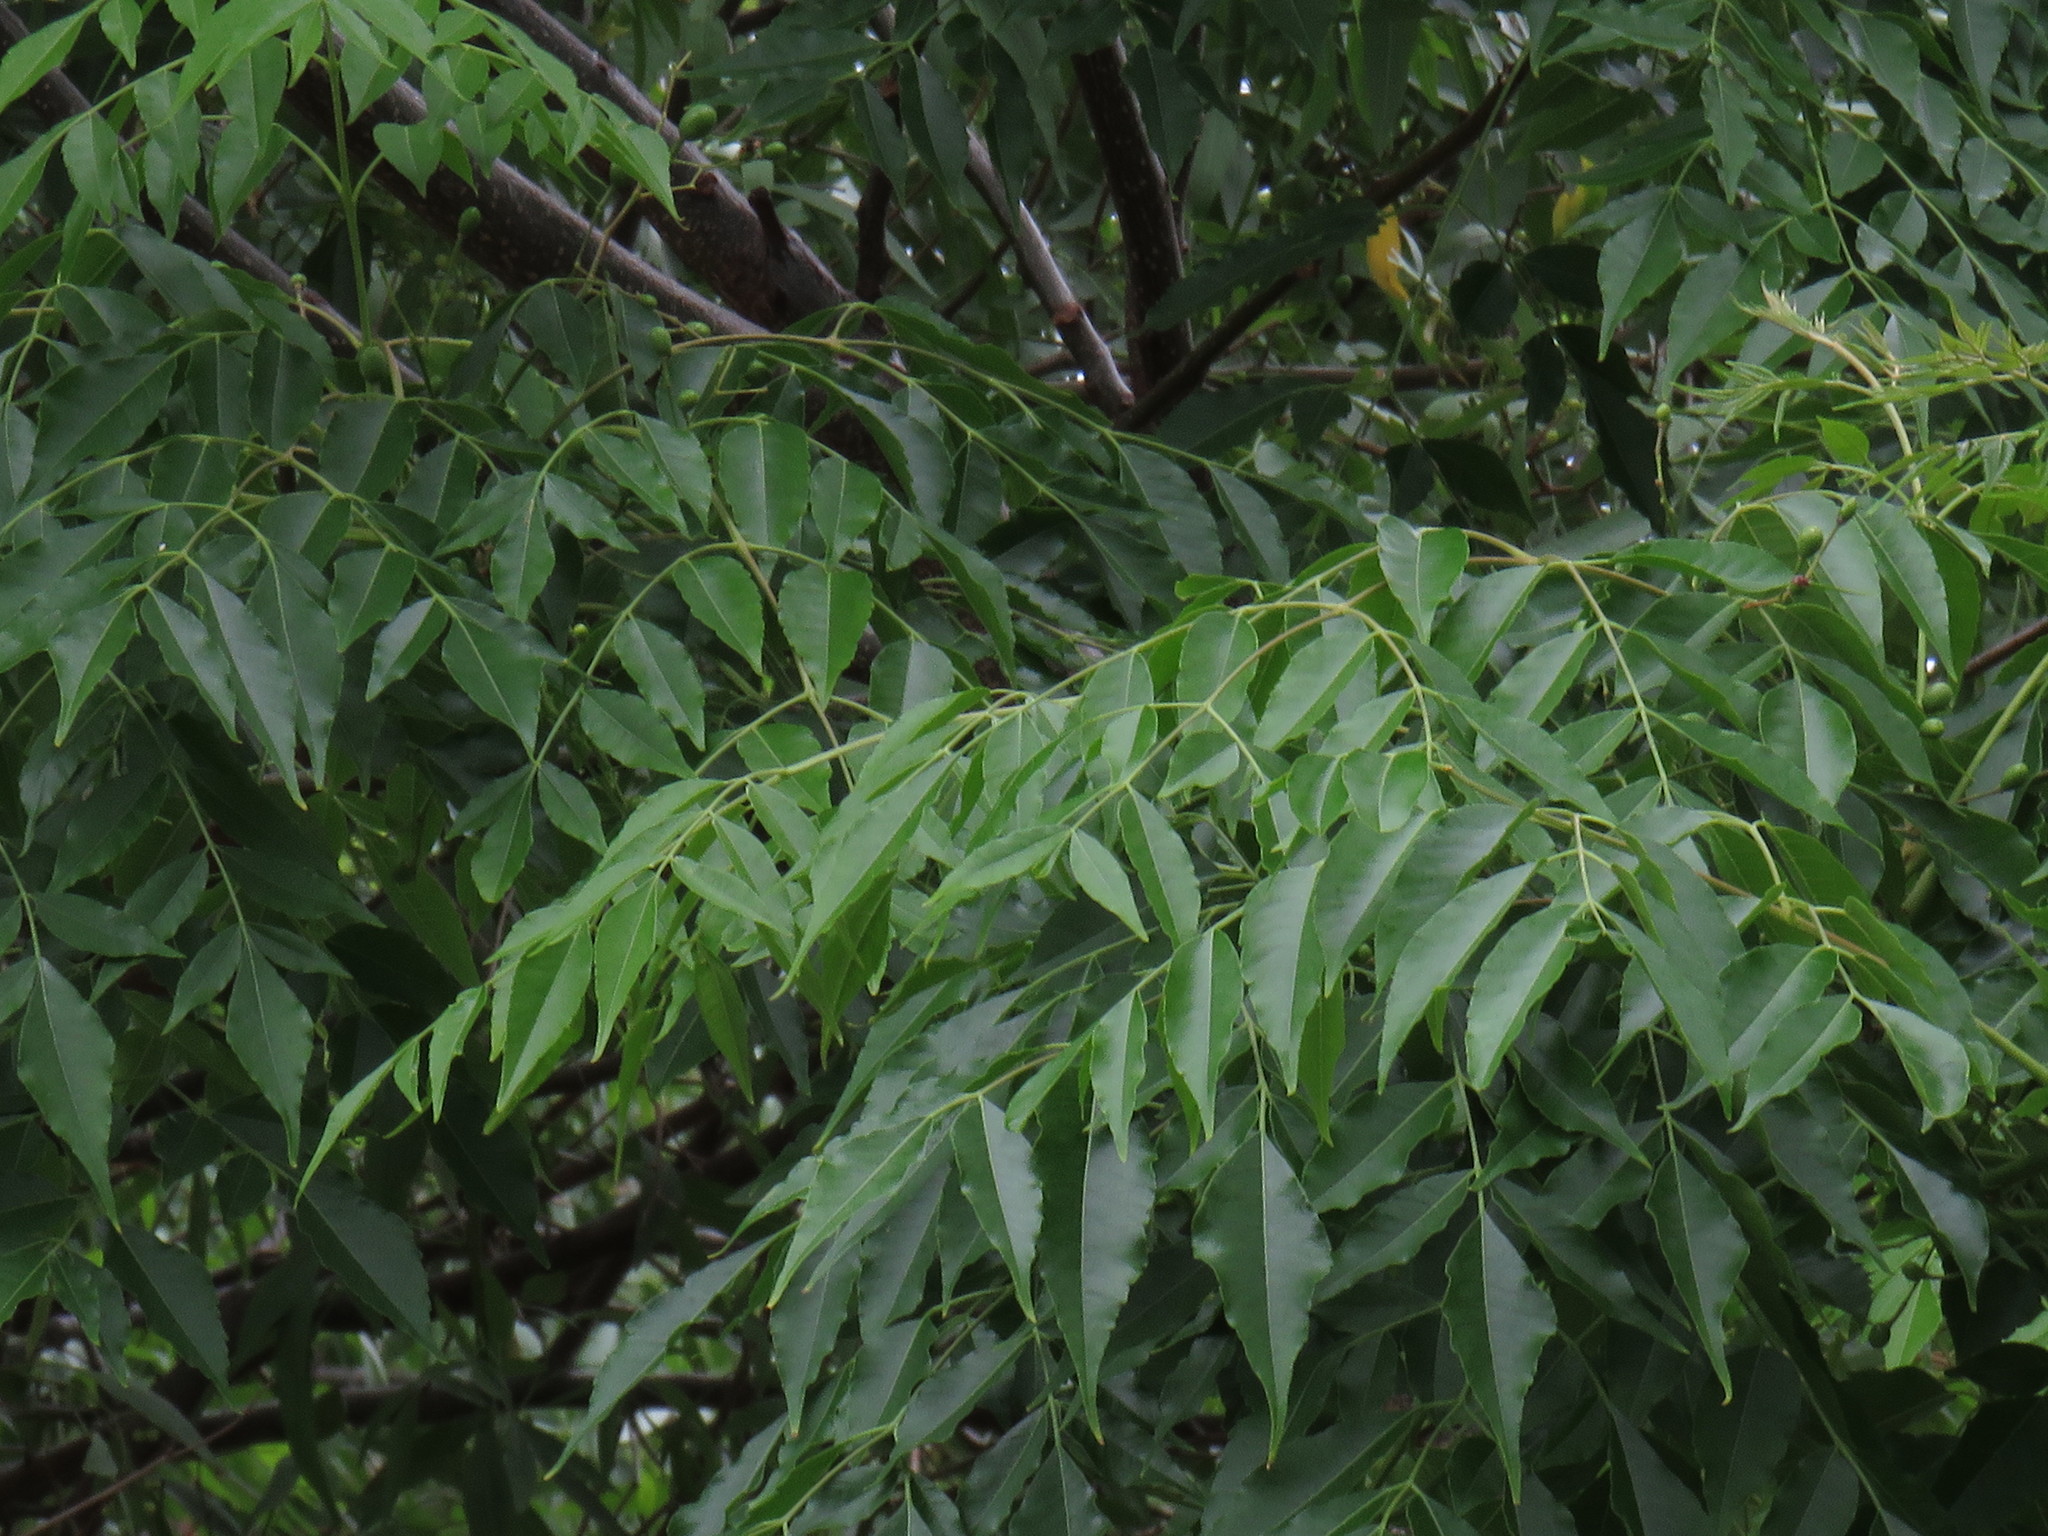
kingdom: Plantae
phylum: Tracheophyta
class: Magnoliopsida
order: Sapindales
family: Meliaceae
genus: Melia
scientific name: Melia azedarach
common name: Chinaberrytree
